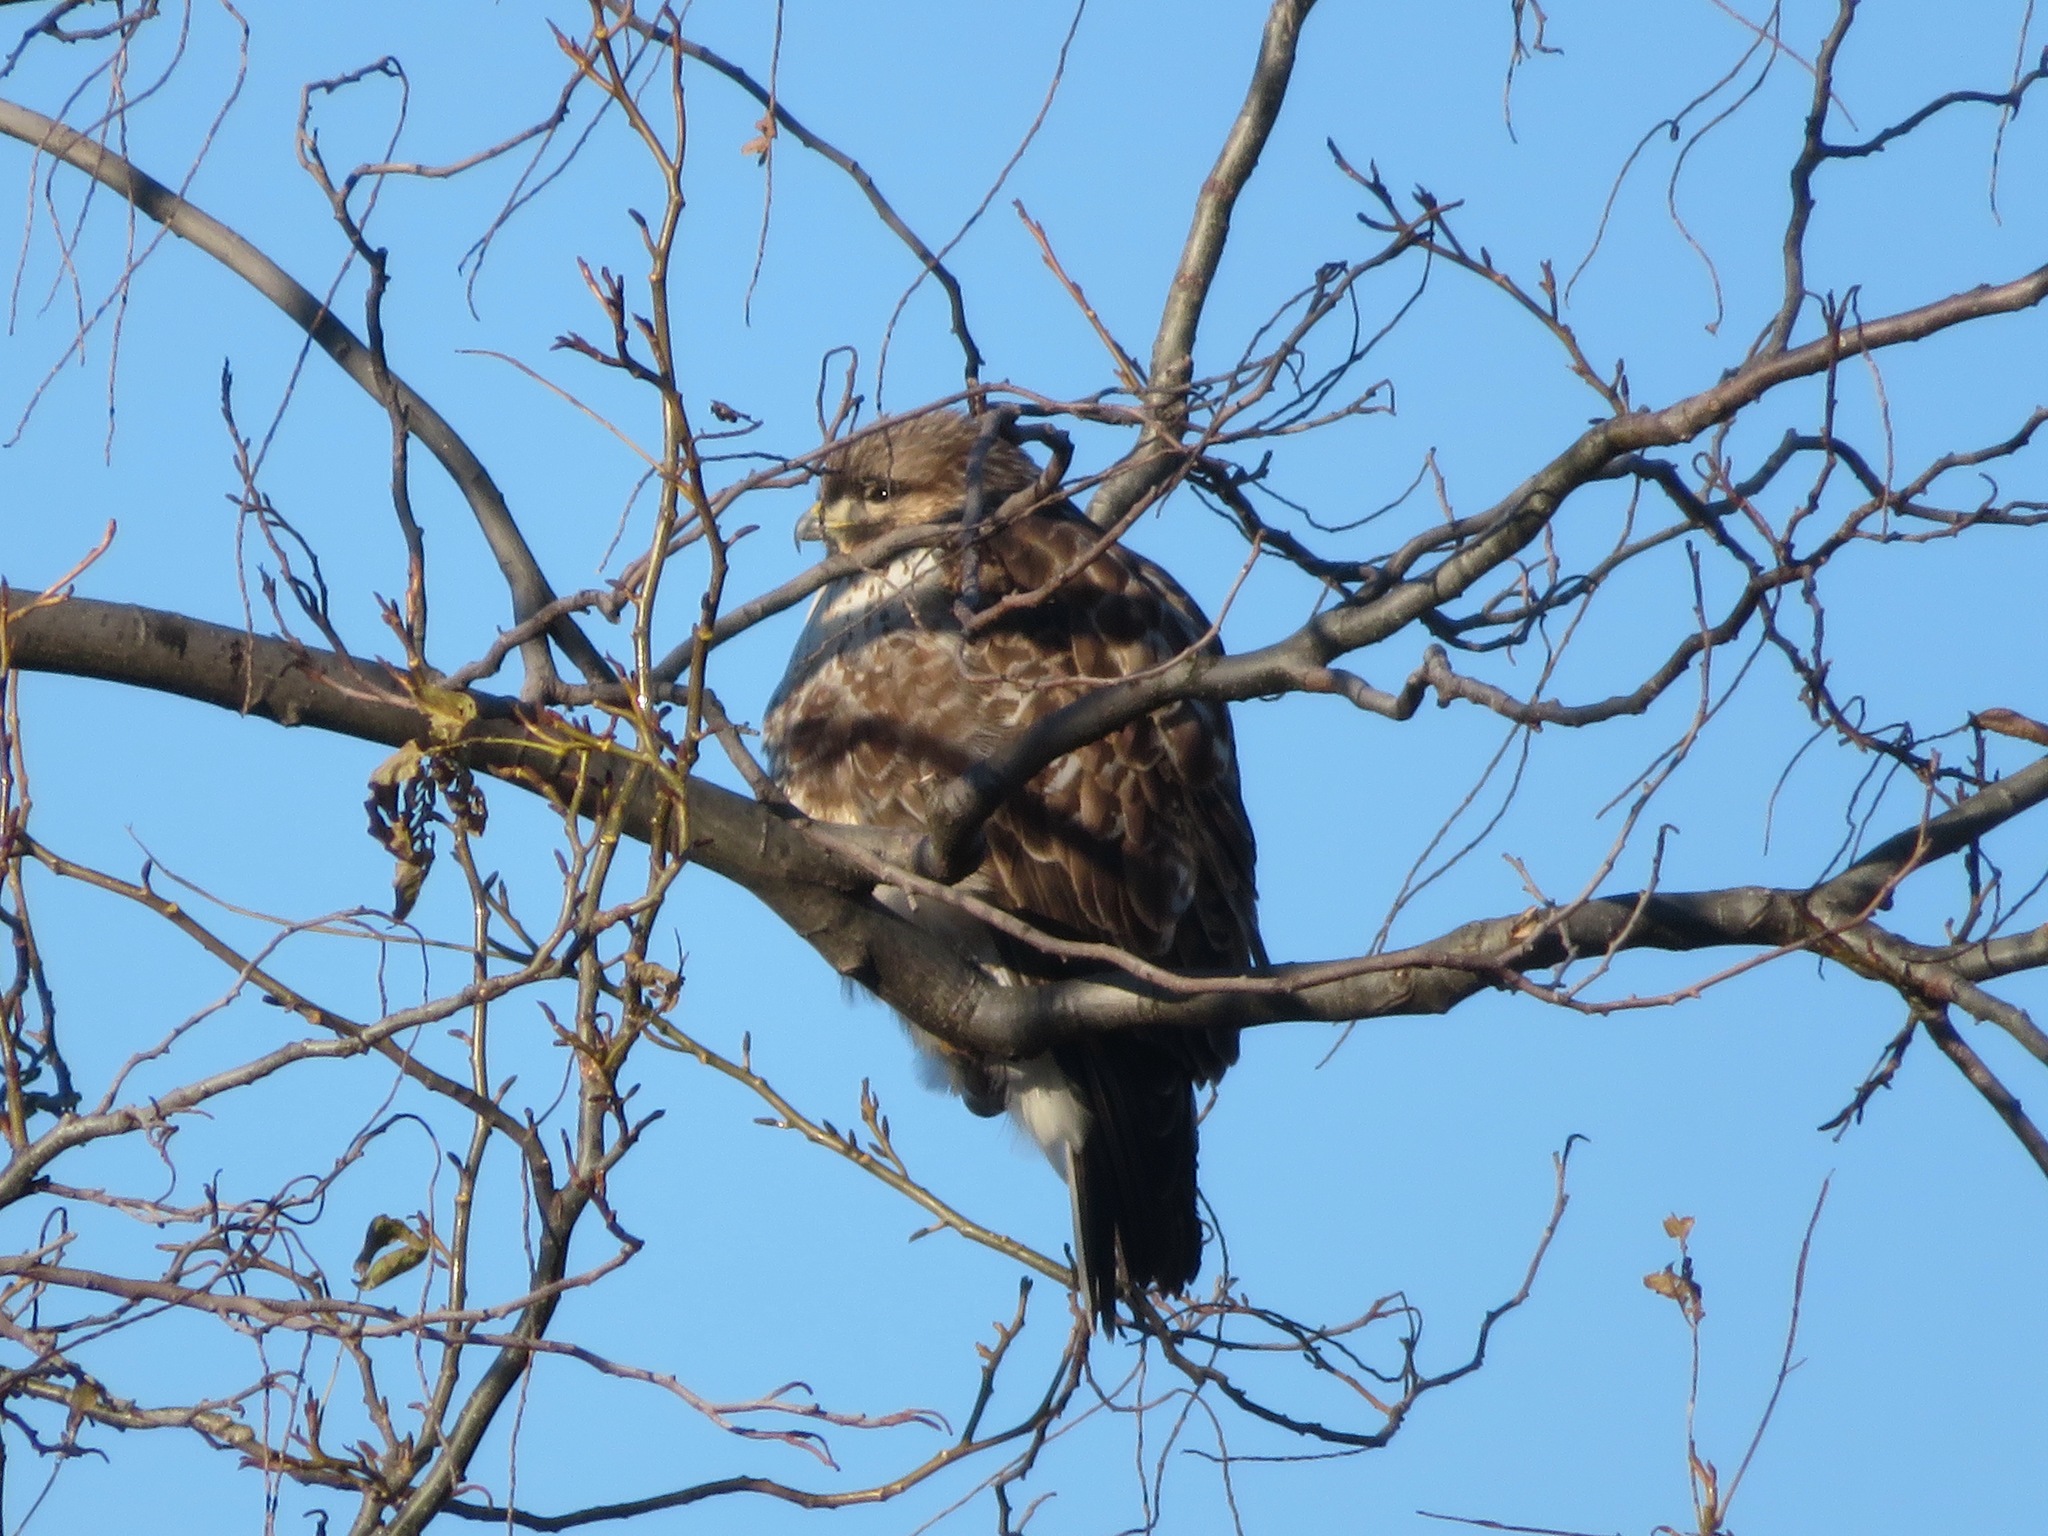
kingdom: Animalia
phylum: Chordata
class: Aves
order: Accipitriformes
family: Accipitridae
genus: Buteo
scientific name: Buteo japonicus
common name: Eastern buzzard
